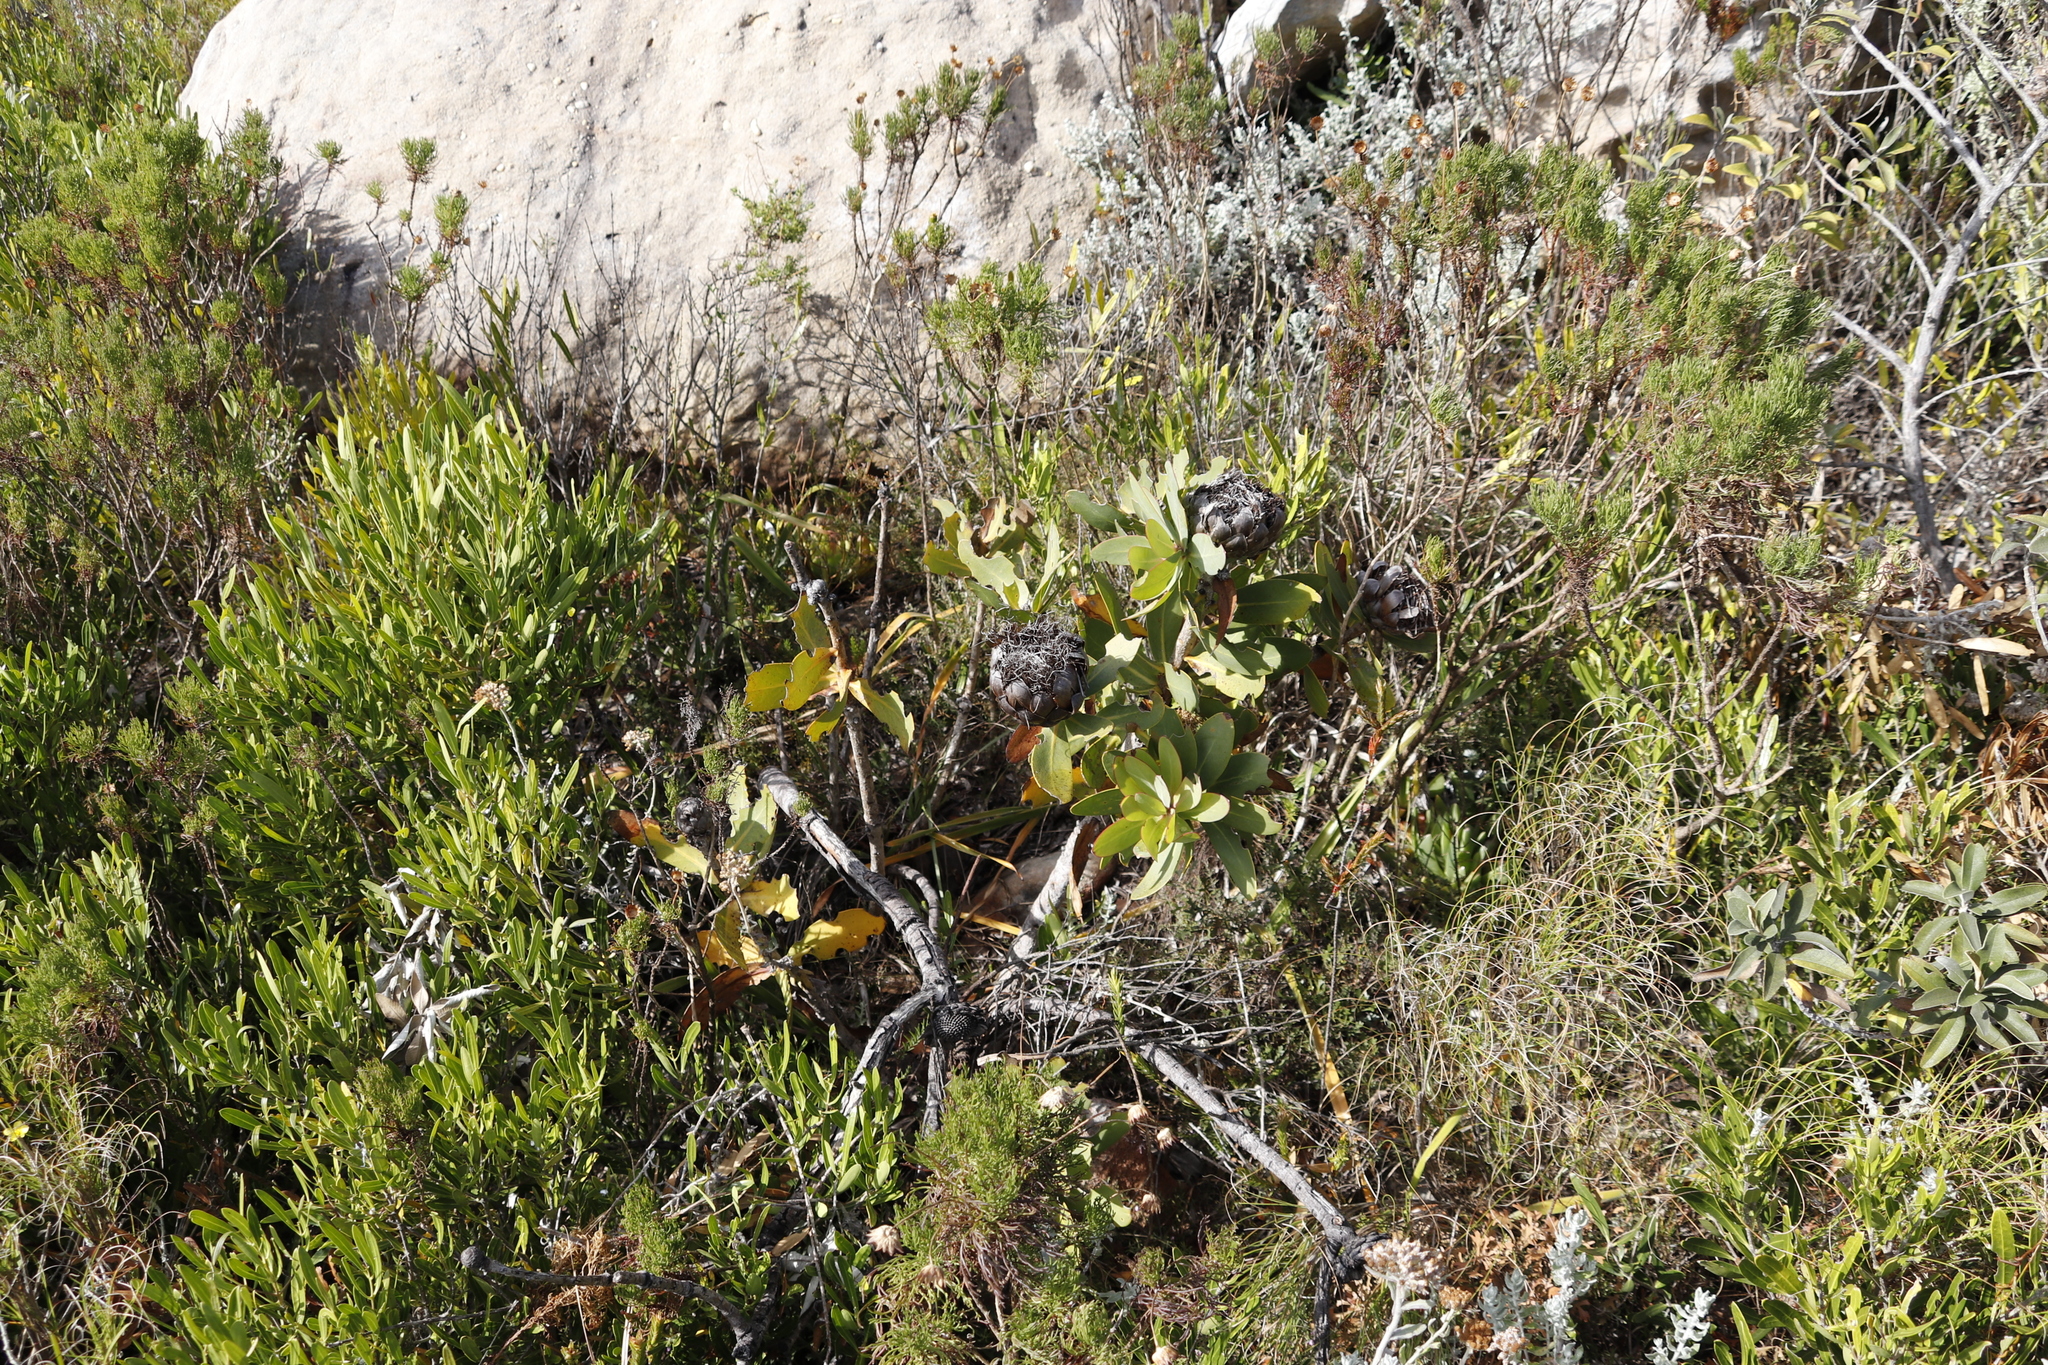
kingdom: Plantae
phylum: Tracheophyta
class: Magnoliopsida
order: Proteales
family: Proteaceae
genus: Protea
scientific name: Protea nitida
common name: Tree protea
